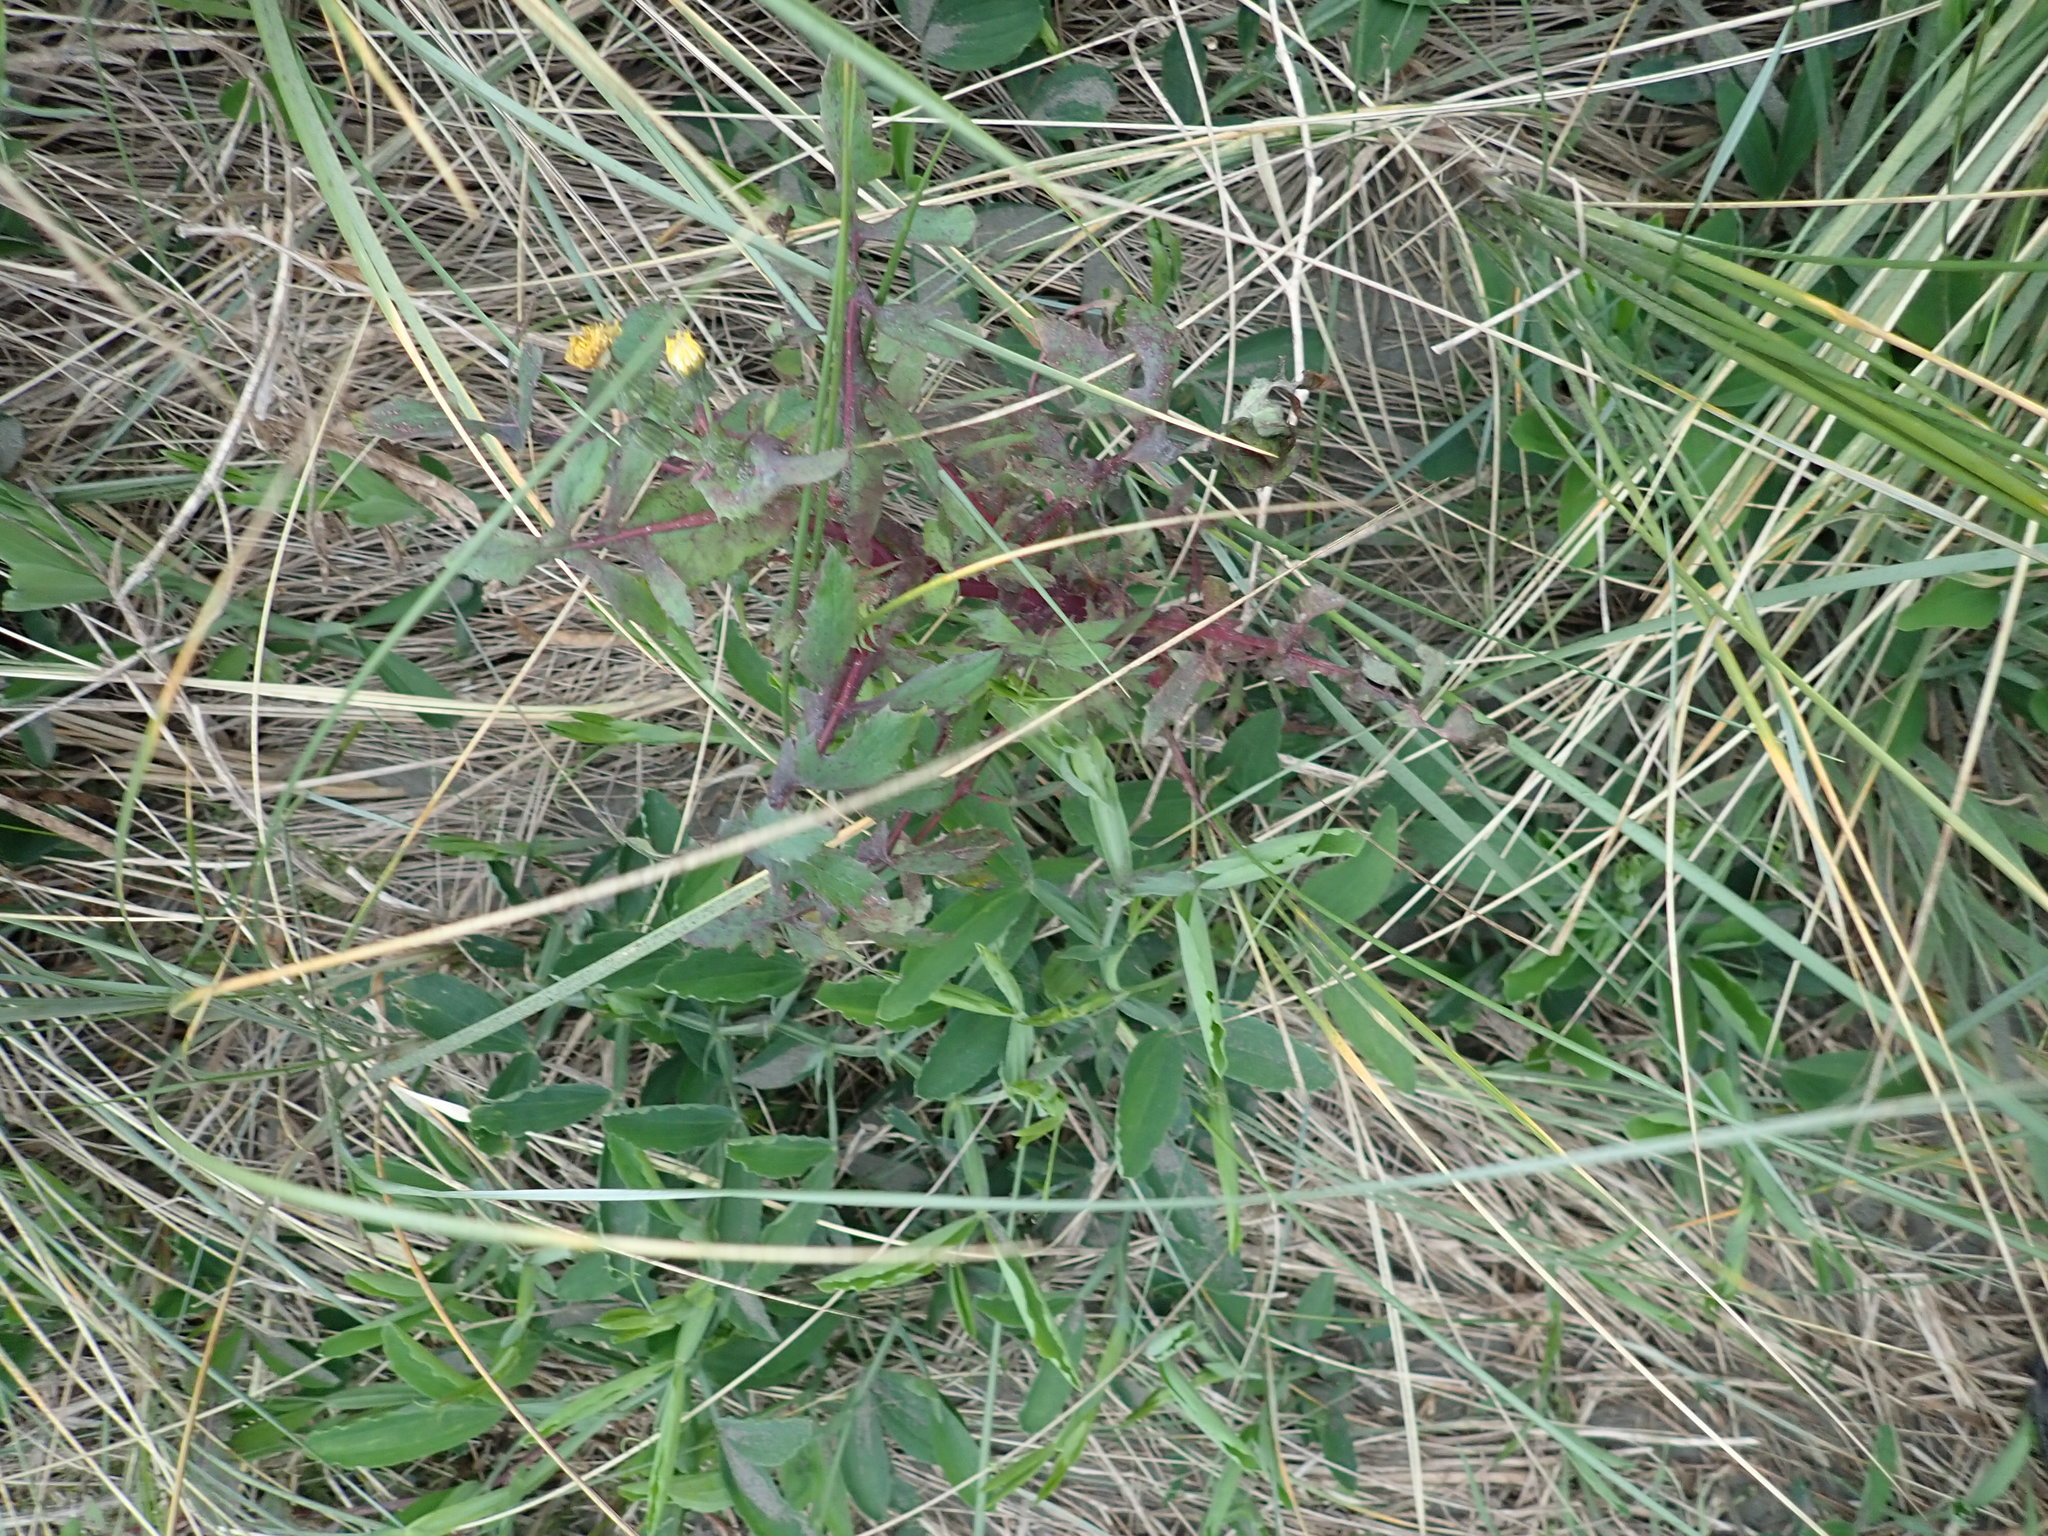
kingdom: Plantae
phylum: Tracheophyta
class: Magnoliopsida
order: Asterales
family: Asteraceae
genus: Sonchus
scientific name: Sonchus oleraceus
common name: Common sowthistle
